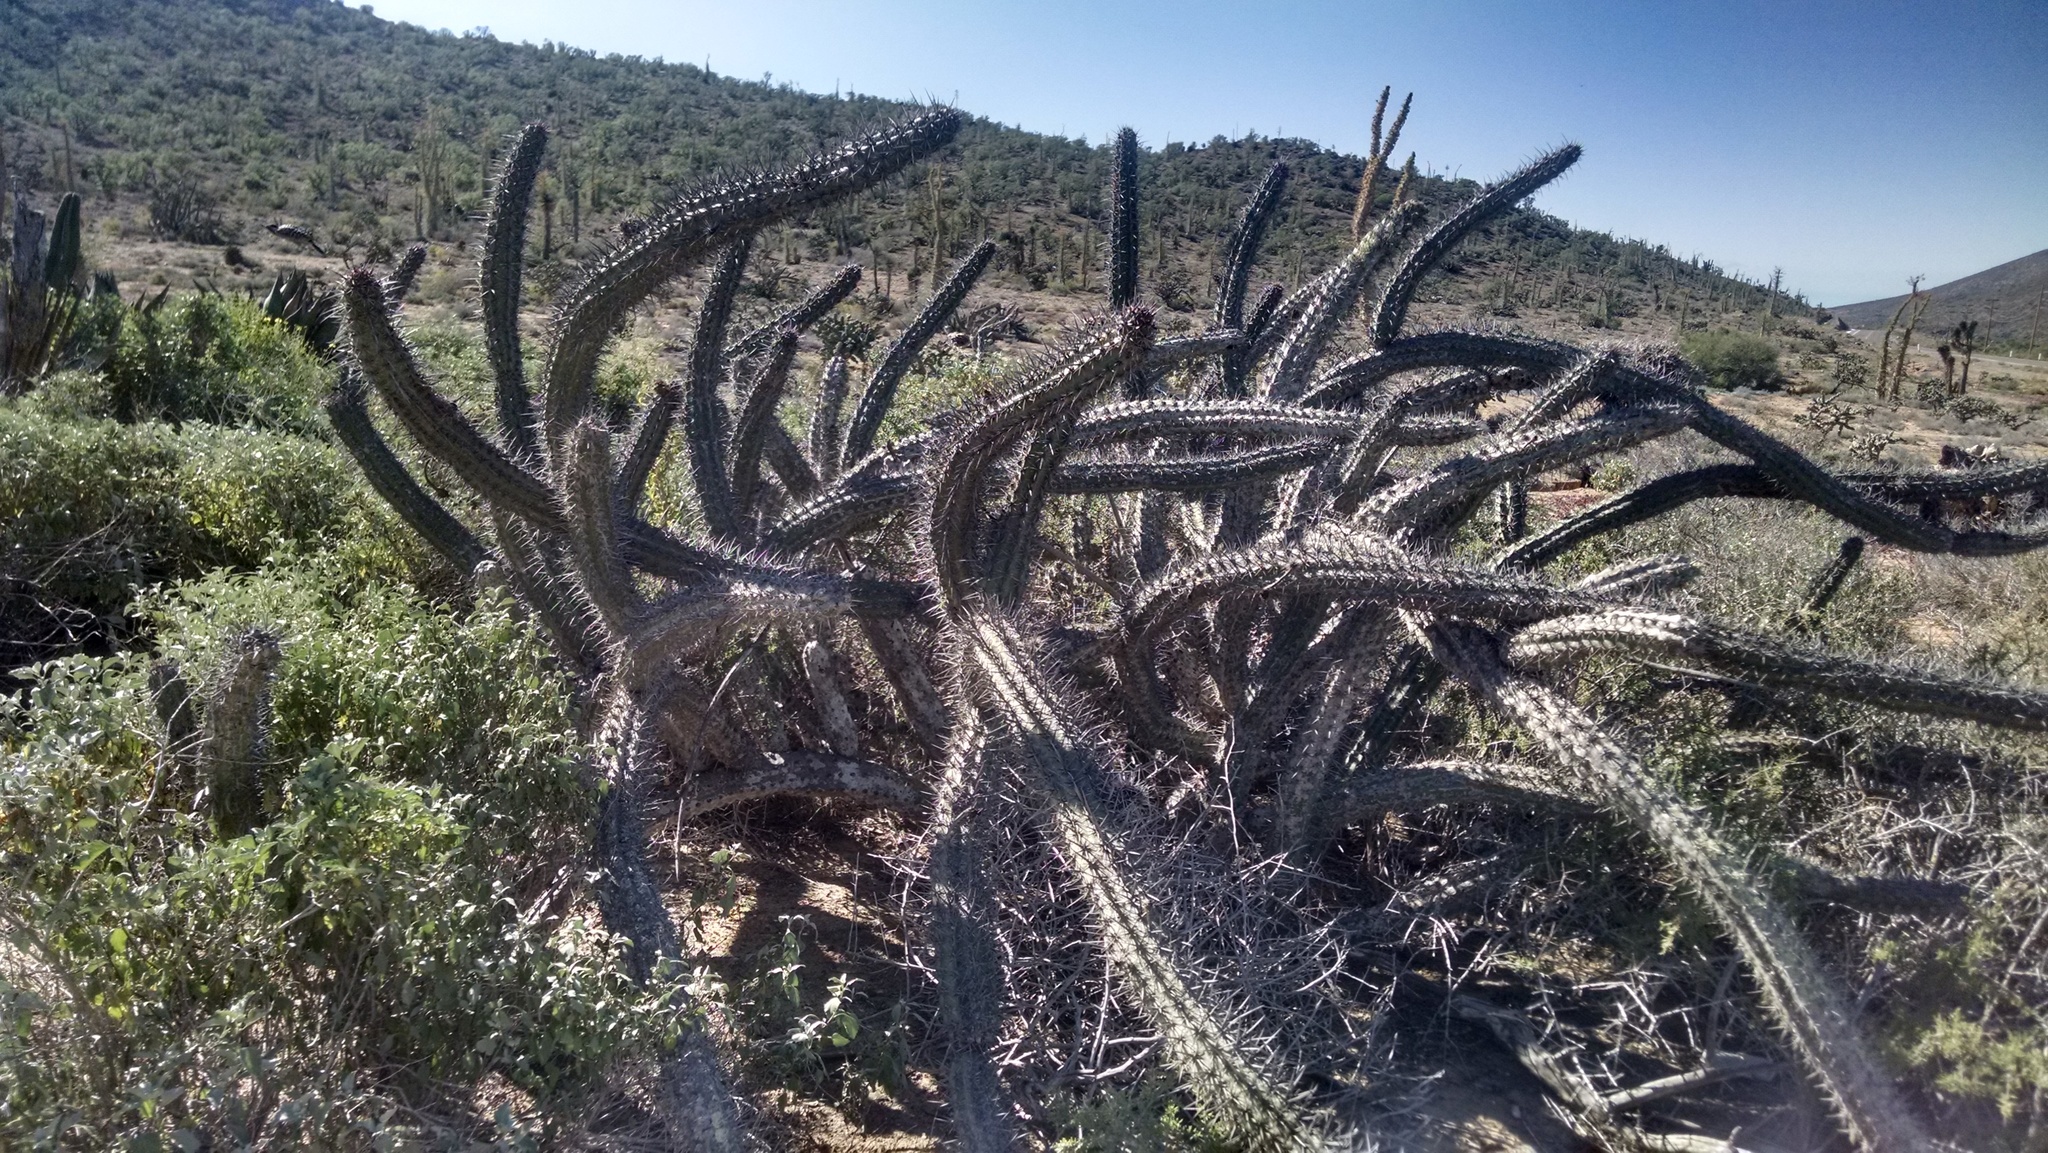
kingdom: Plantae
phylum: Tracheophyta
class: Magnoliopsida
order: Caryophyllales
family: Cactaceae
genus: Stenocereus
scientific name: Stenocereus gummosus
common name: Dagger cactus
